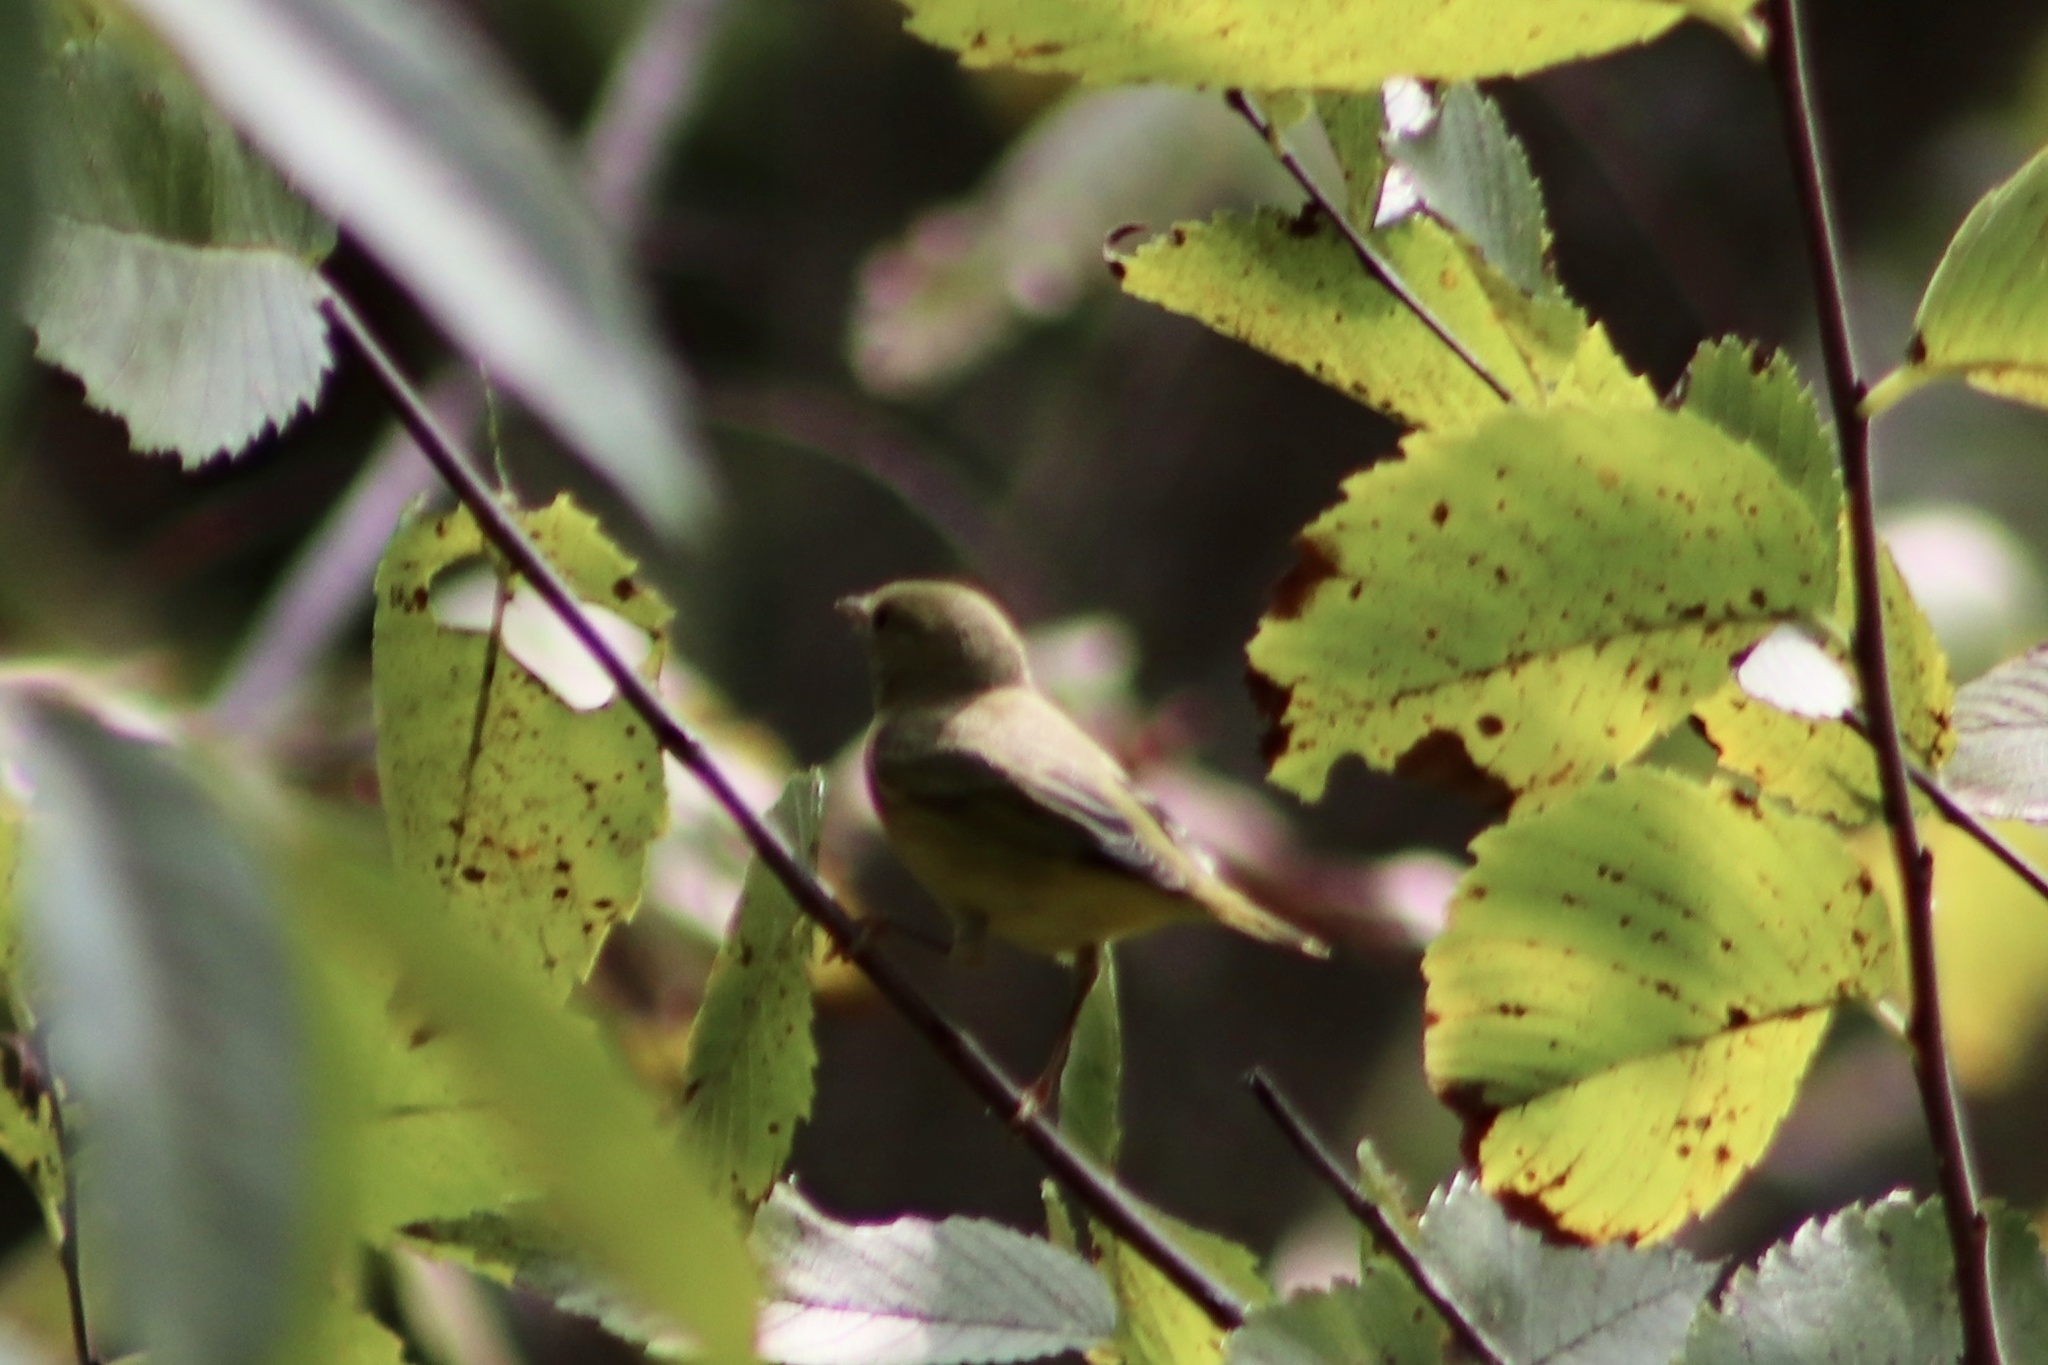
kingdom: Animalia
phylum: Chordata
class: Aves
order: Passeriformes
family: Parulidae
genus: Setophaga
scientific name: Setophaga petechia
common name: Yellow warbler
